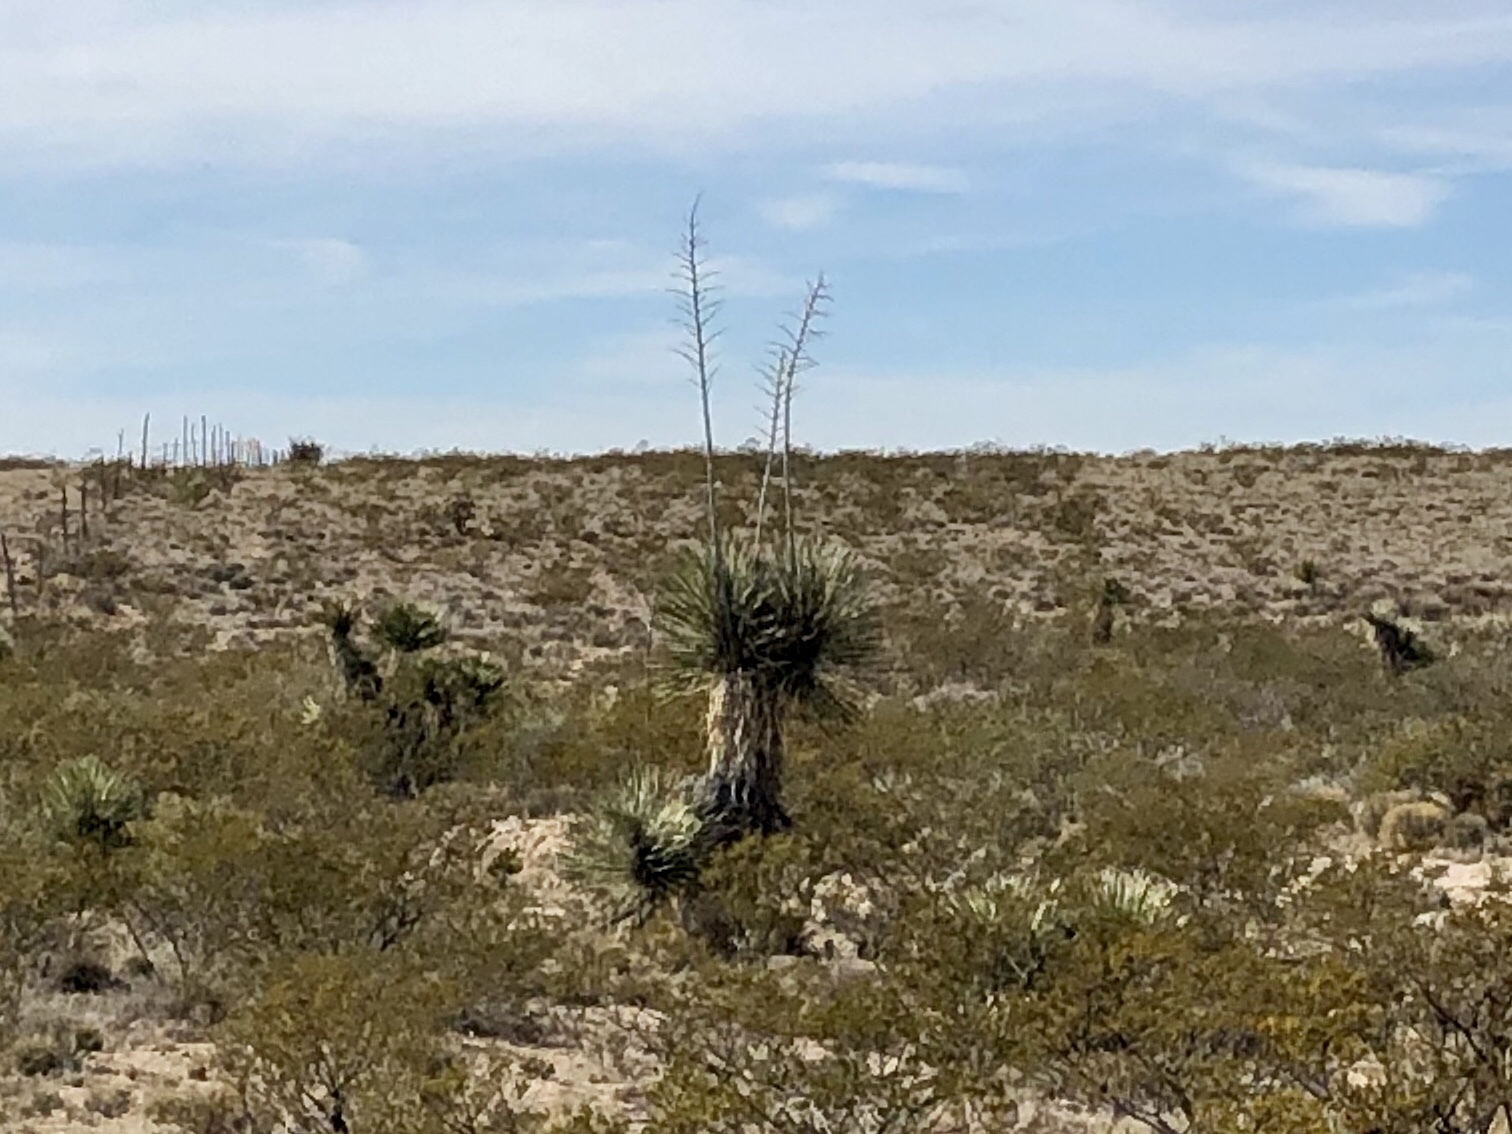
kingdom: Plantae
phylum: Tracheophyta
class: Liliopsida
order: Asparagales
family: Asparagaceae
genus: Yucca
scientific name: Yucca elata
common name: Palmella
